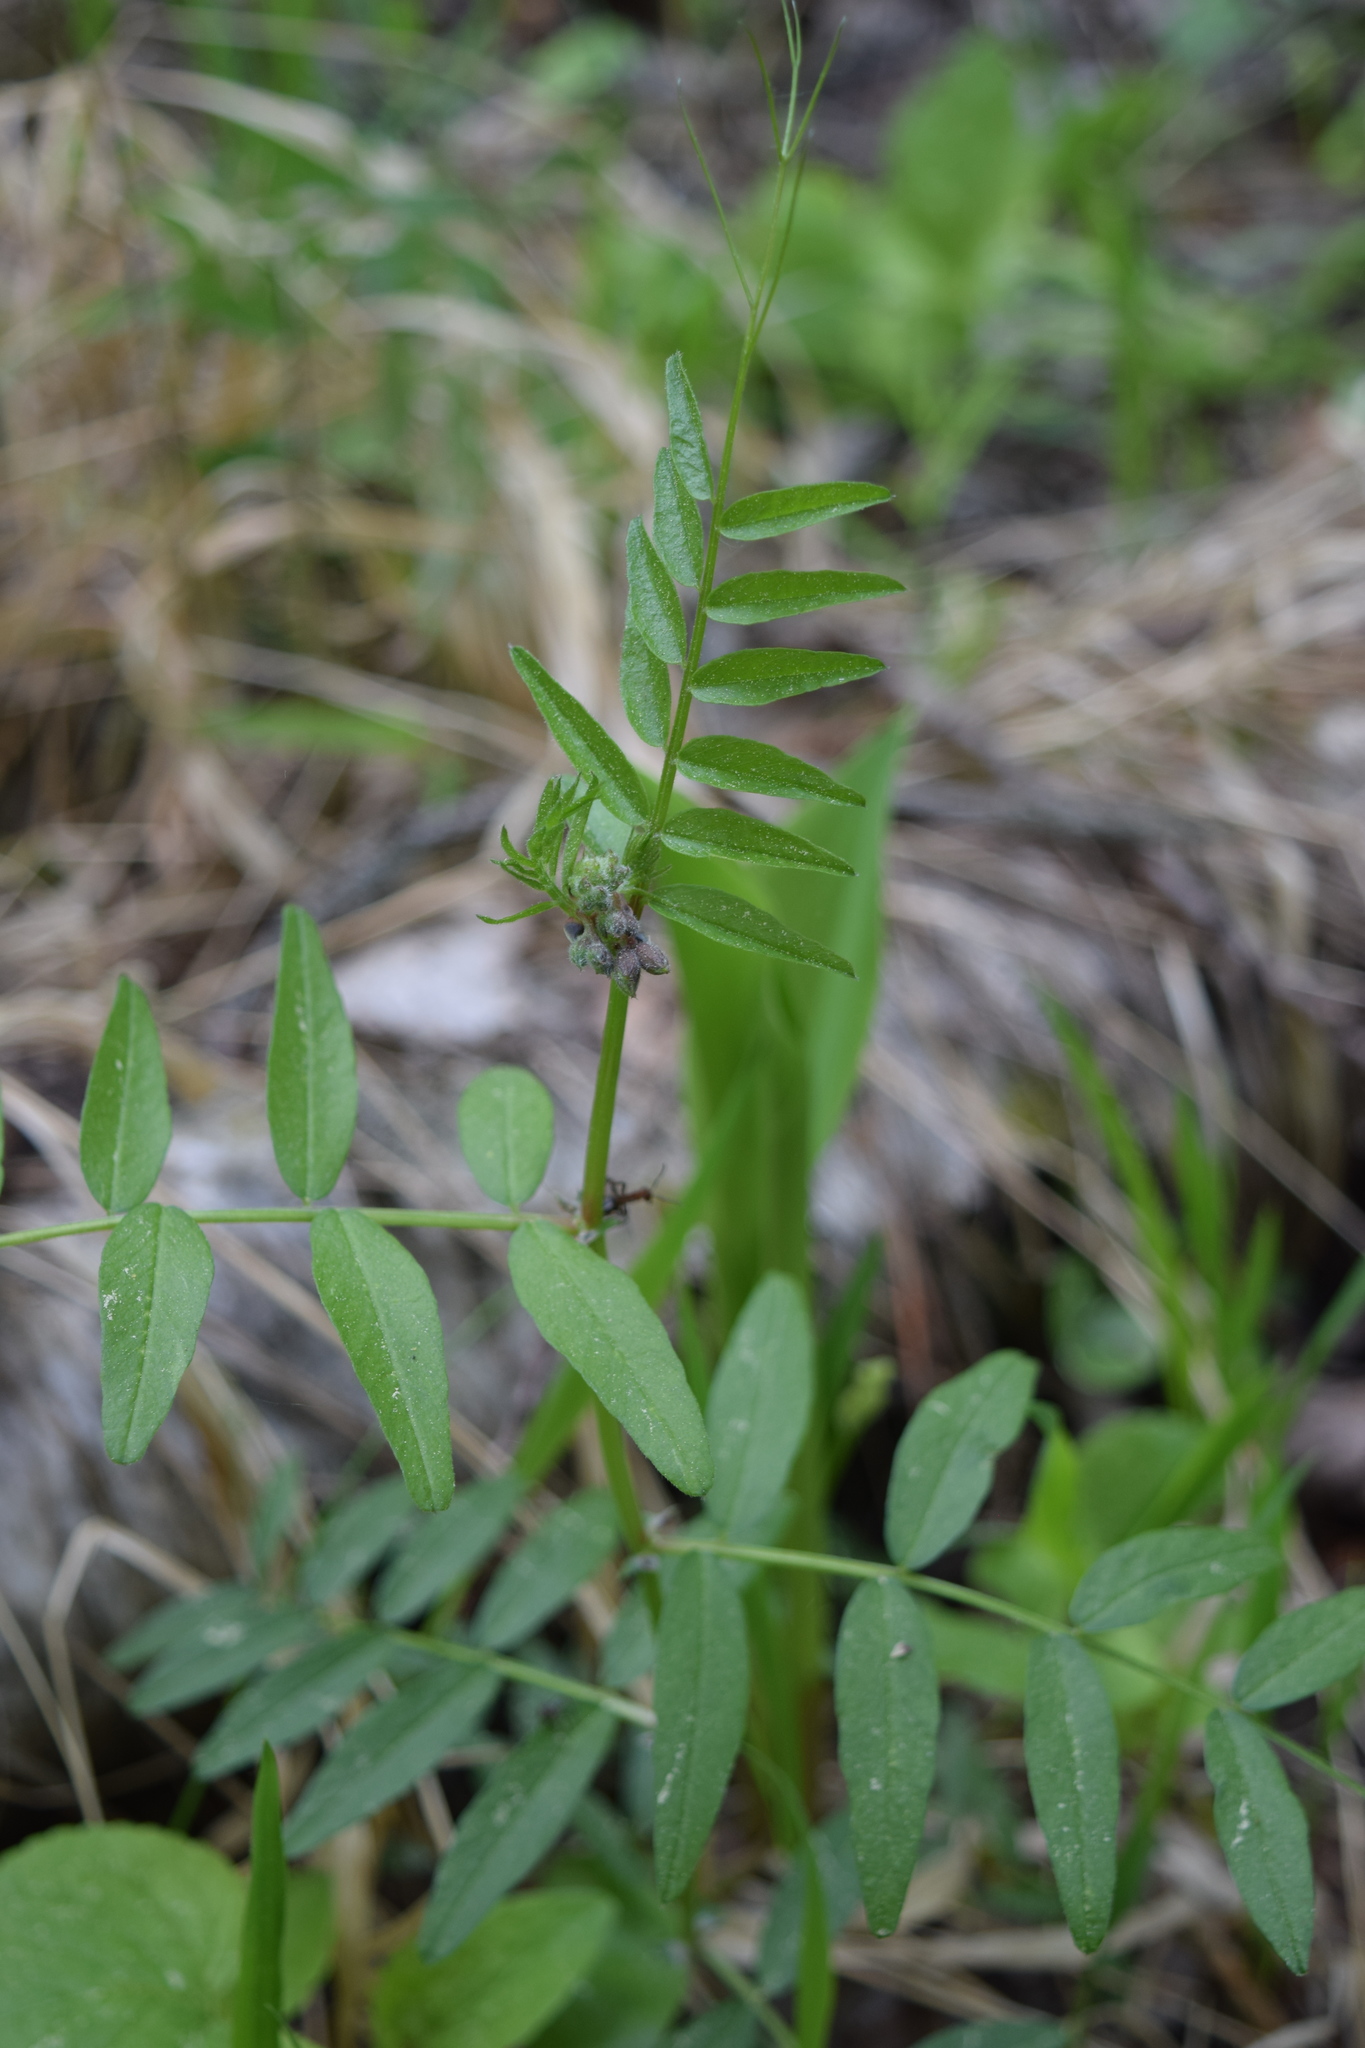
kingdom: Plantae
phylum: Tracheophyta
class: Magnoliopsida
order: Fabales
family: Fabaceae
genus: Vicia
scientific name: Vicia sepium
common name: Bush vetch
